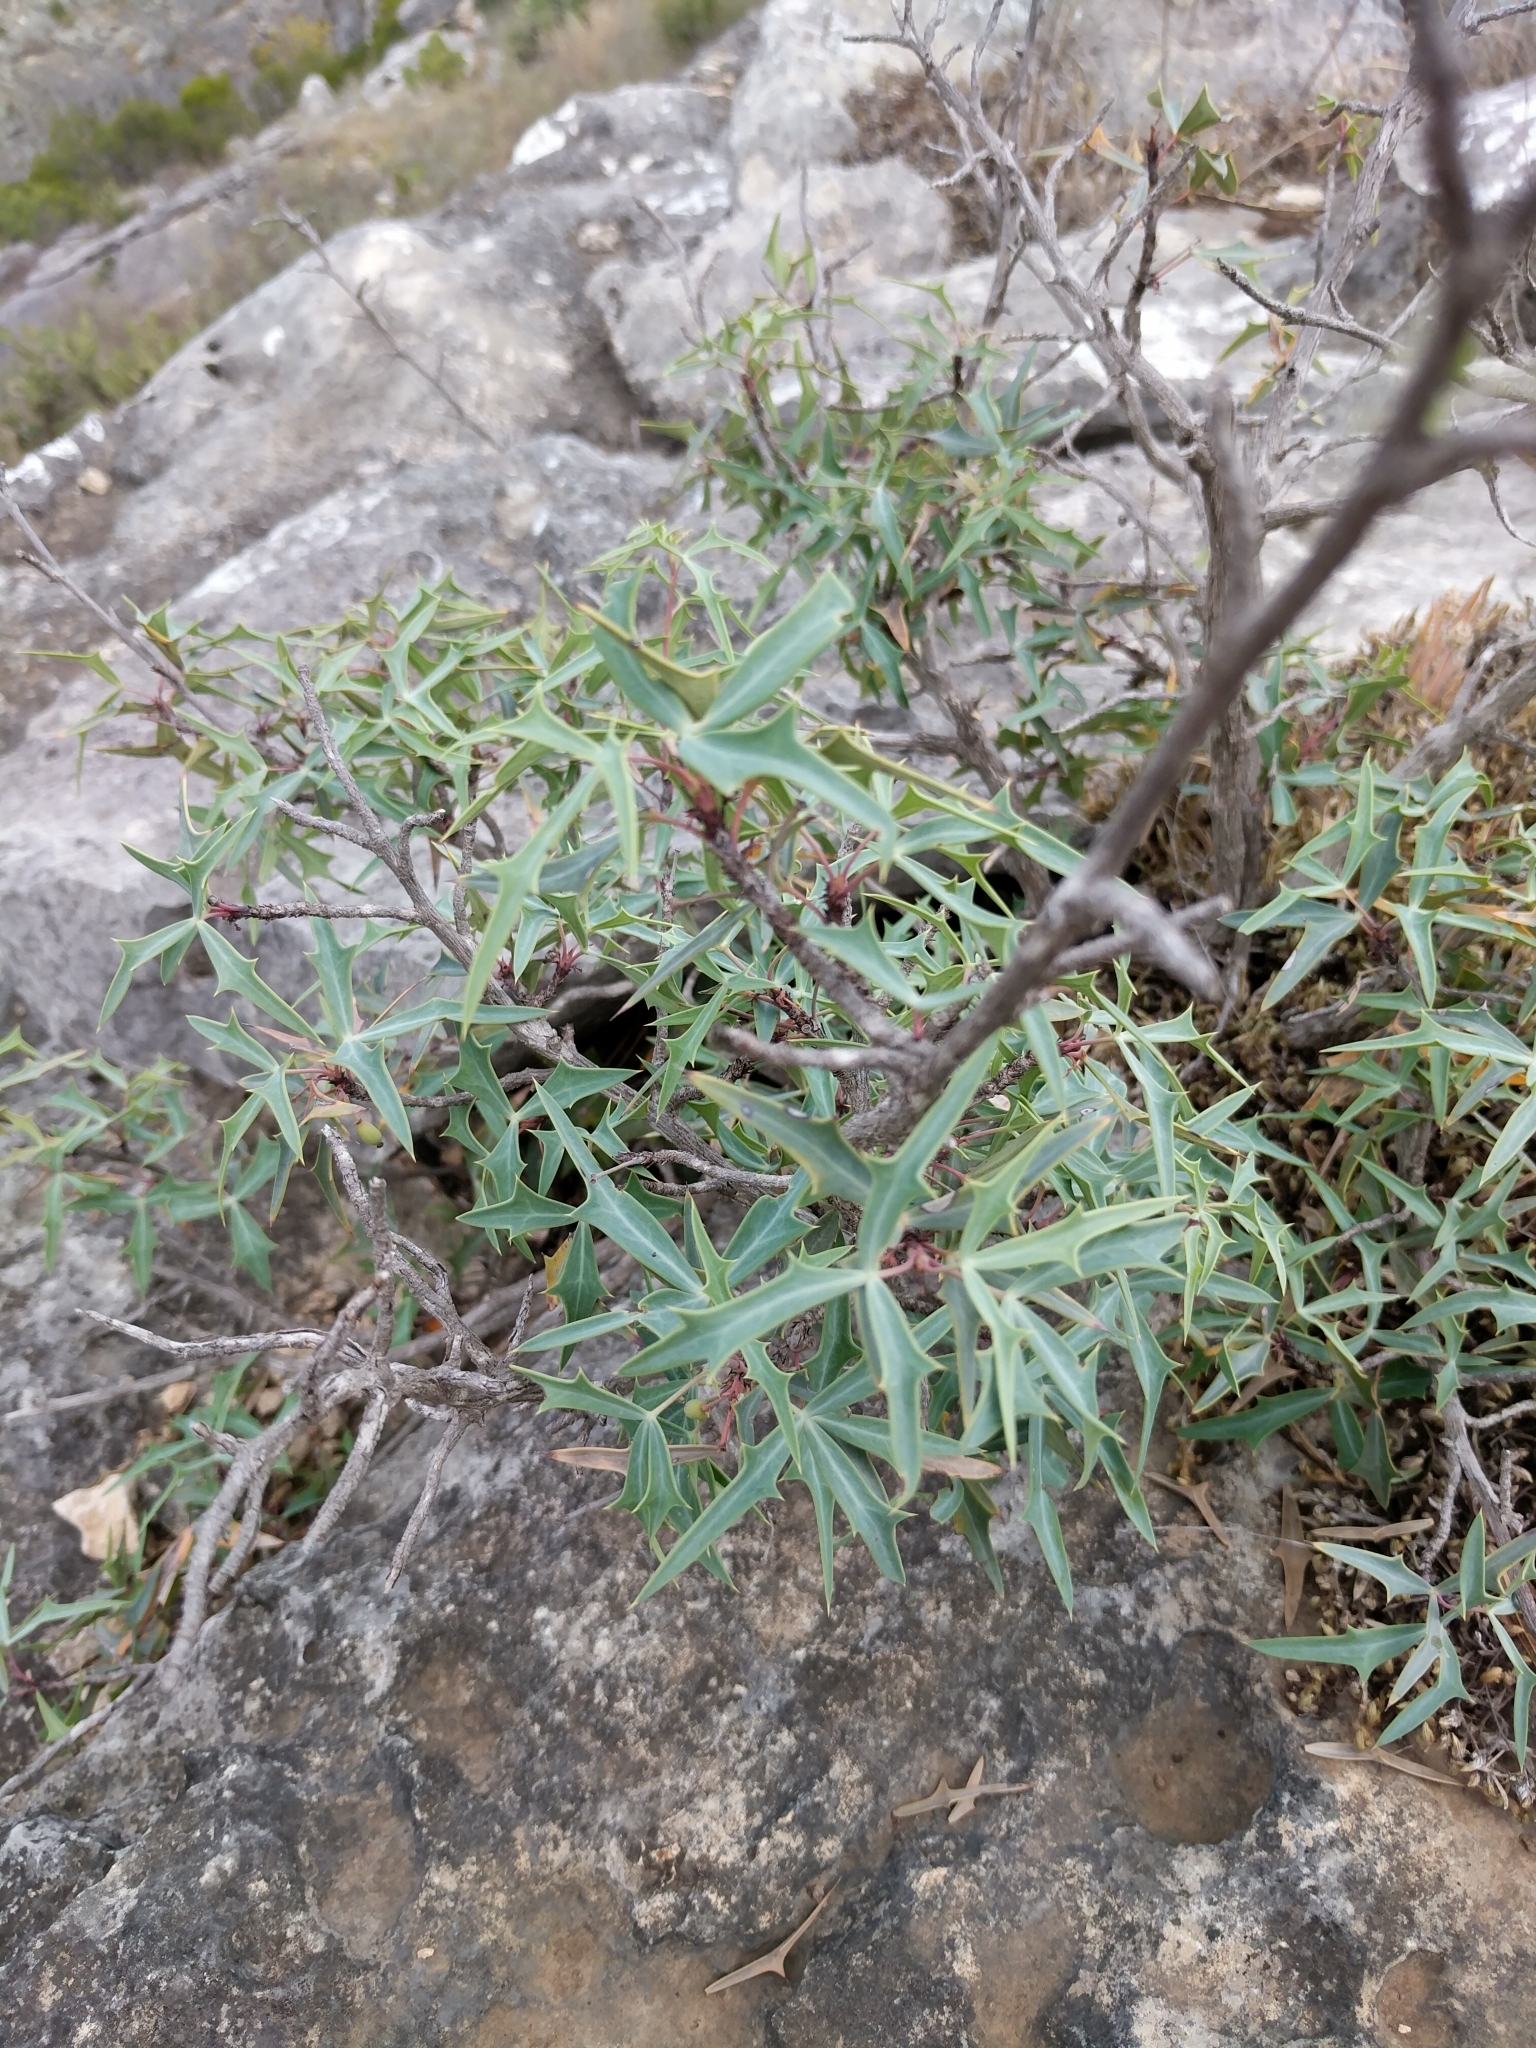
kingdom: Plantae
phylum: Tracheophyta
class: Magnoliopsida
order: Ranunculales
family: Berberidaceae
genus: Alloberberis
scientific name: Alloberberis trifoliolata
